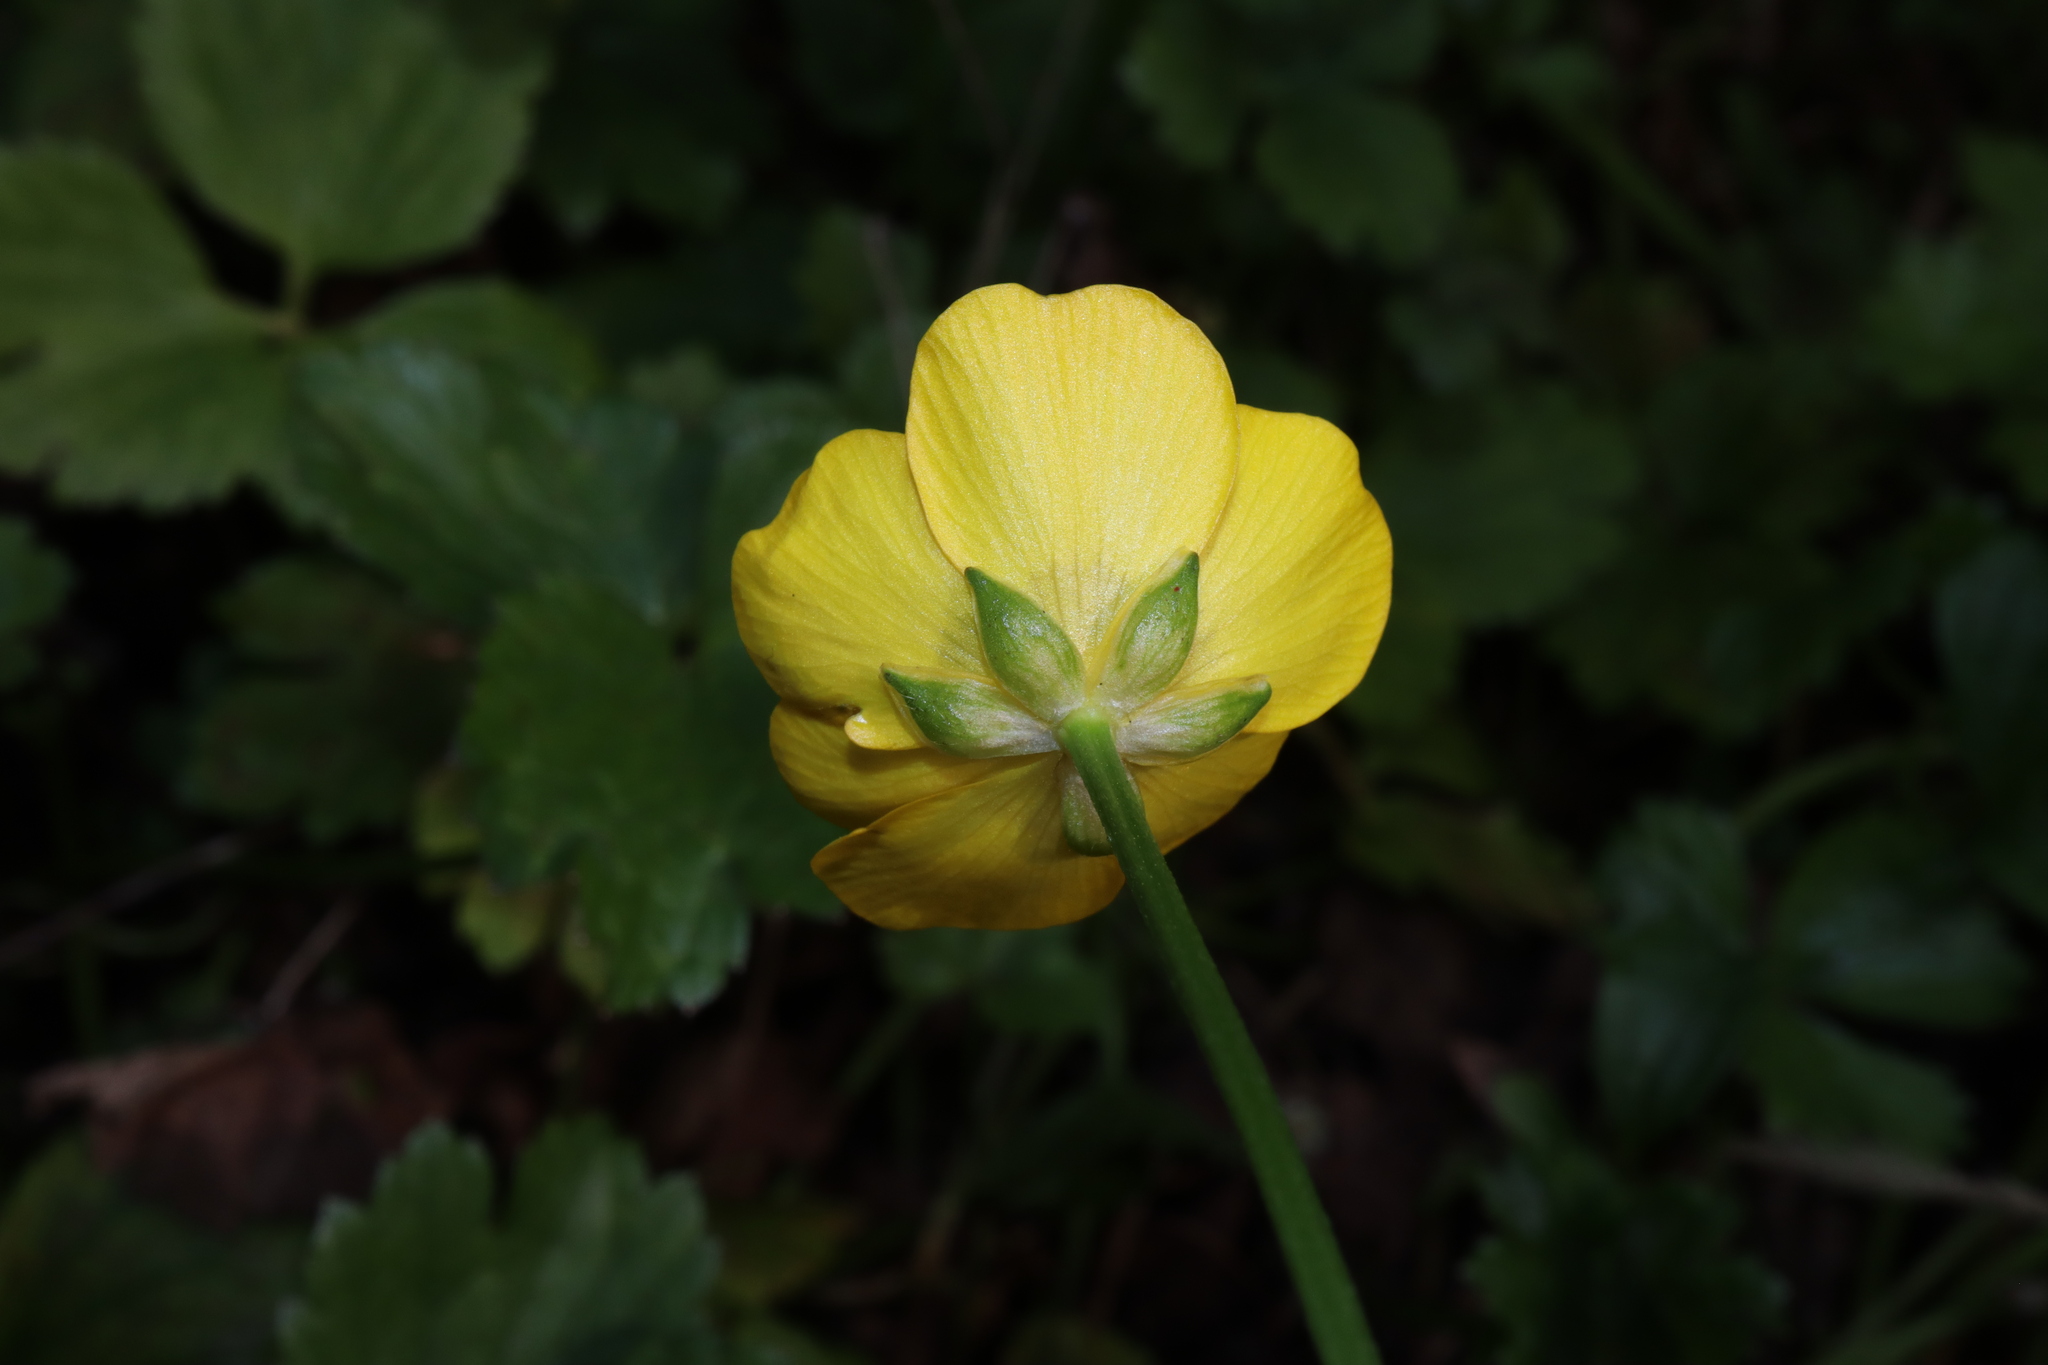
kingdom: Plantae
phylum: Tracheophyta
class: Magnoliopsida
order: Ranunculales
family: Ranunculaceae
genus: Ranunculus
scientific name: Ranunculus repens
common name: Creeping buttercup
